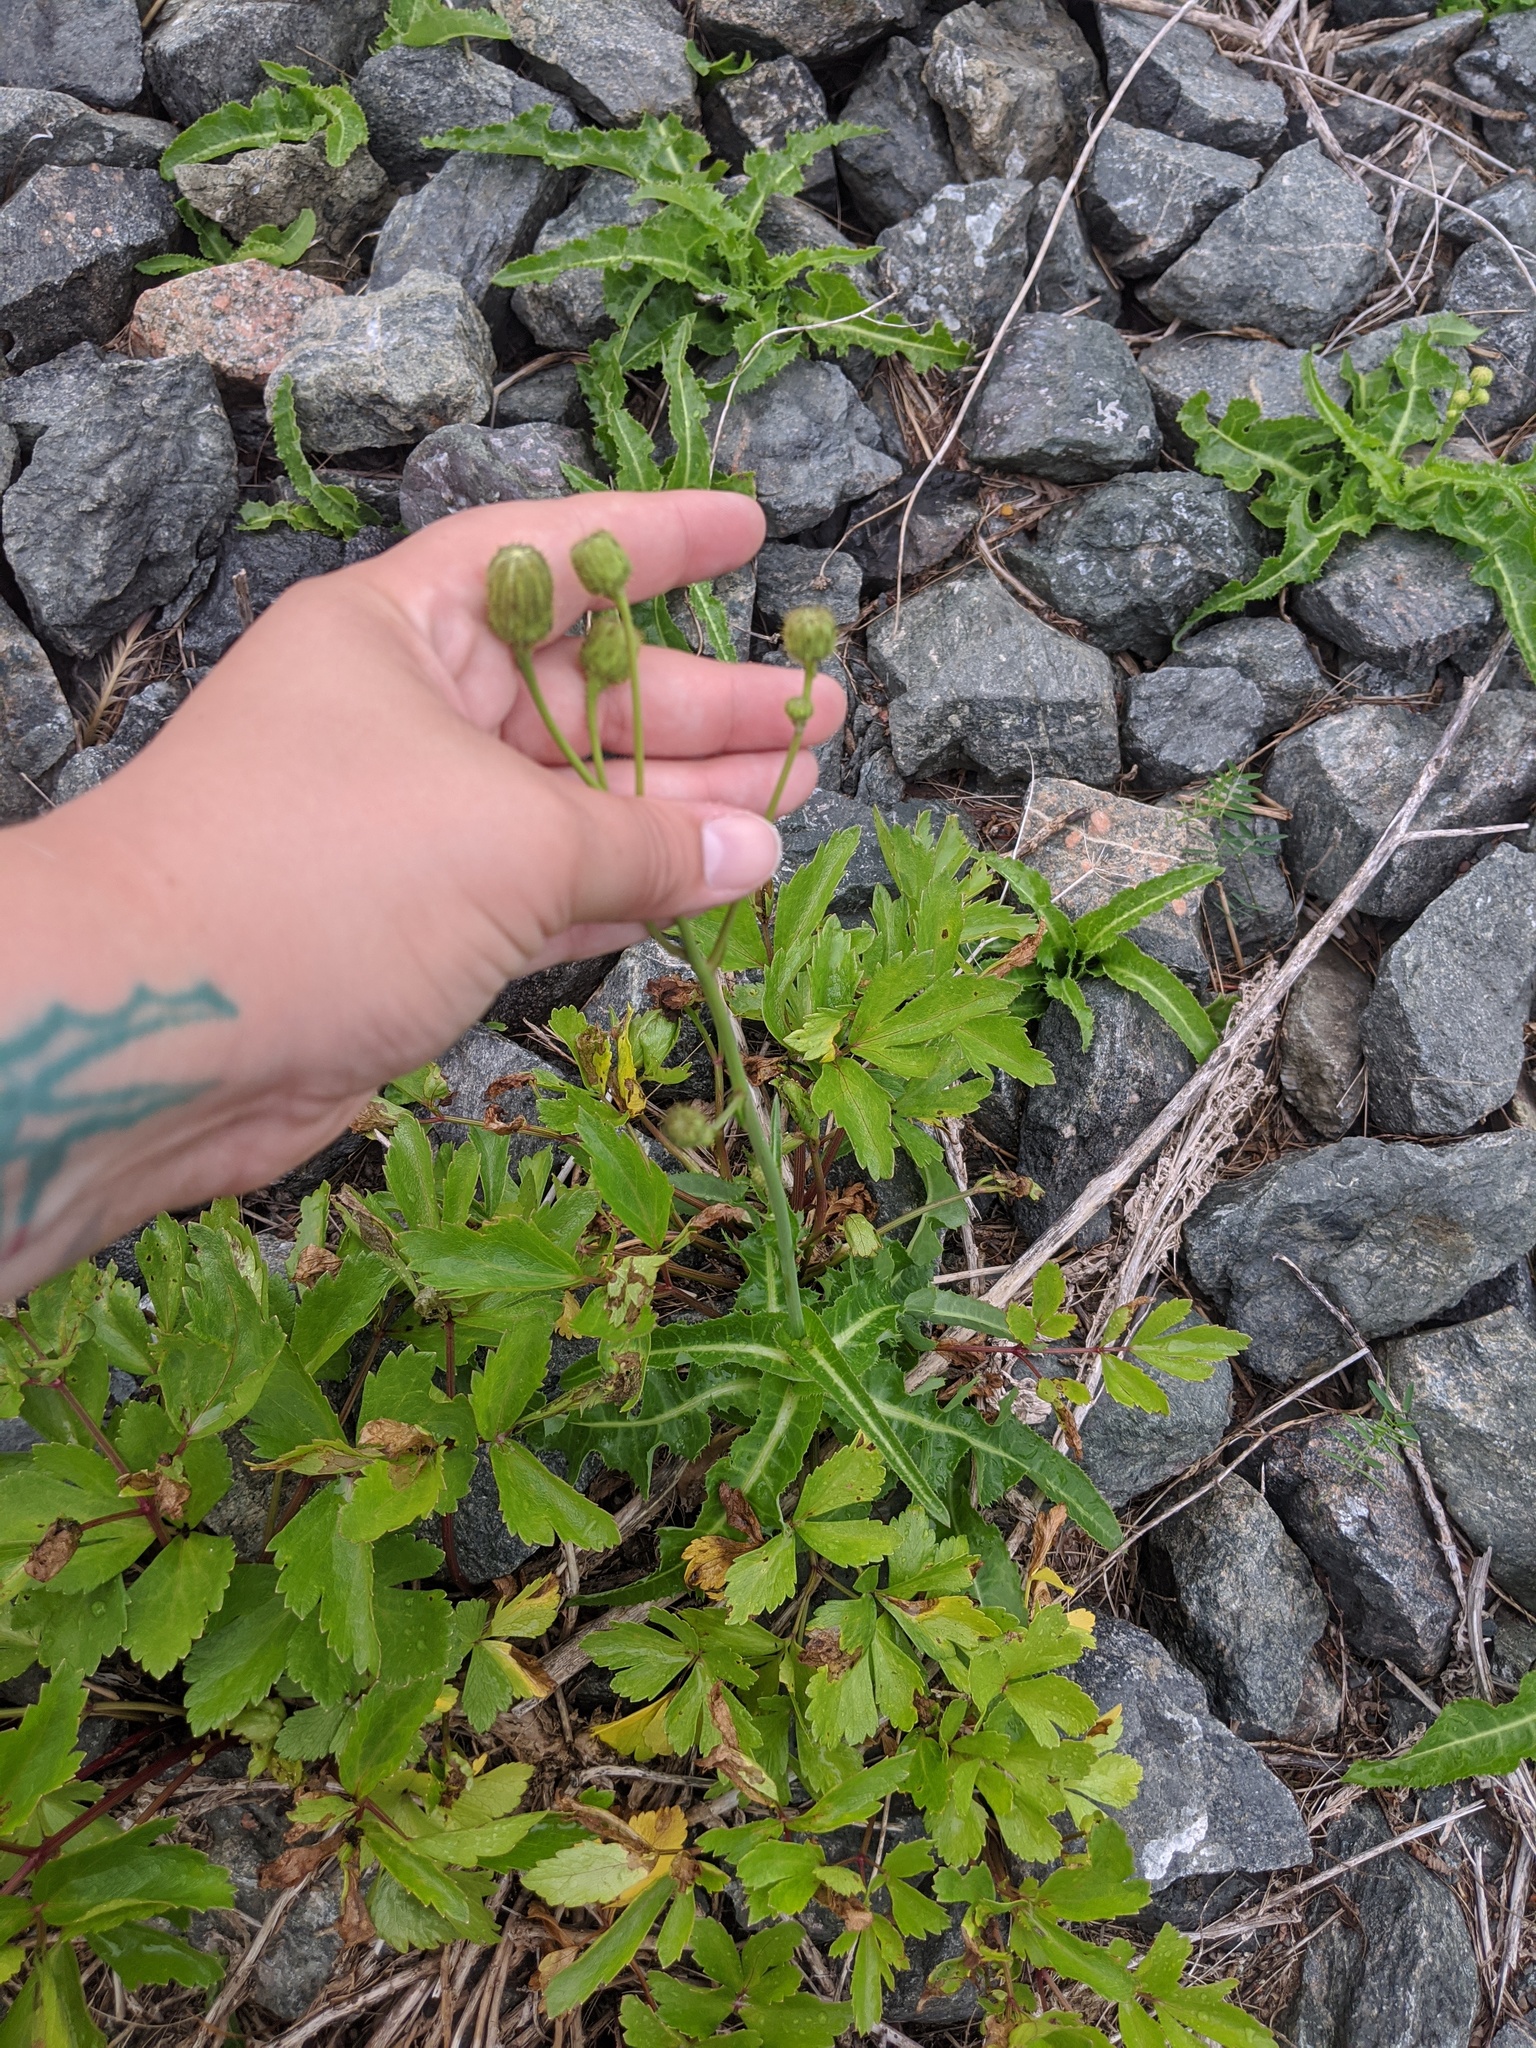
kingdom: Plantae
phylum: Tracheophyta
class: Magnoliopsida
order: Asterales
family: Asteraceae
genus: Sonchus
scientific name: Sonchus arvensis
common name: Perennial sow-thistle
